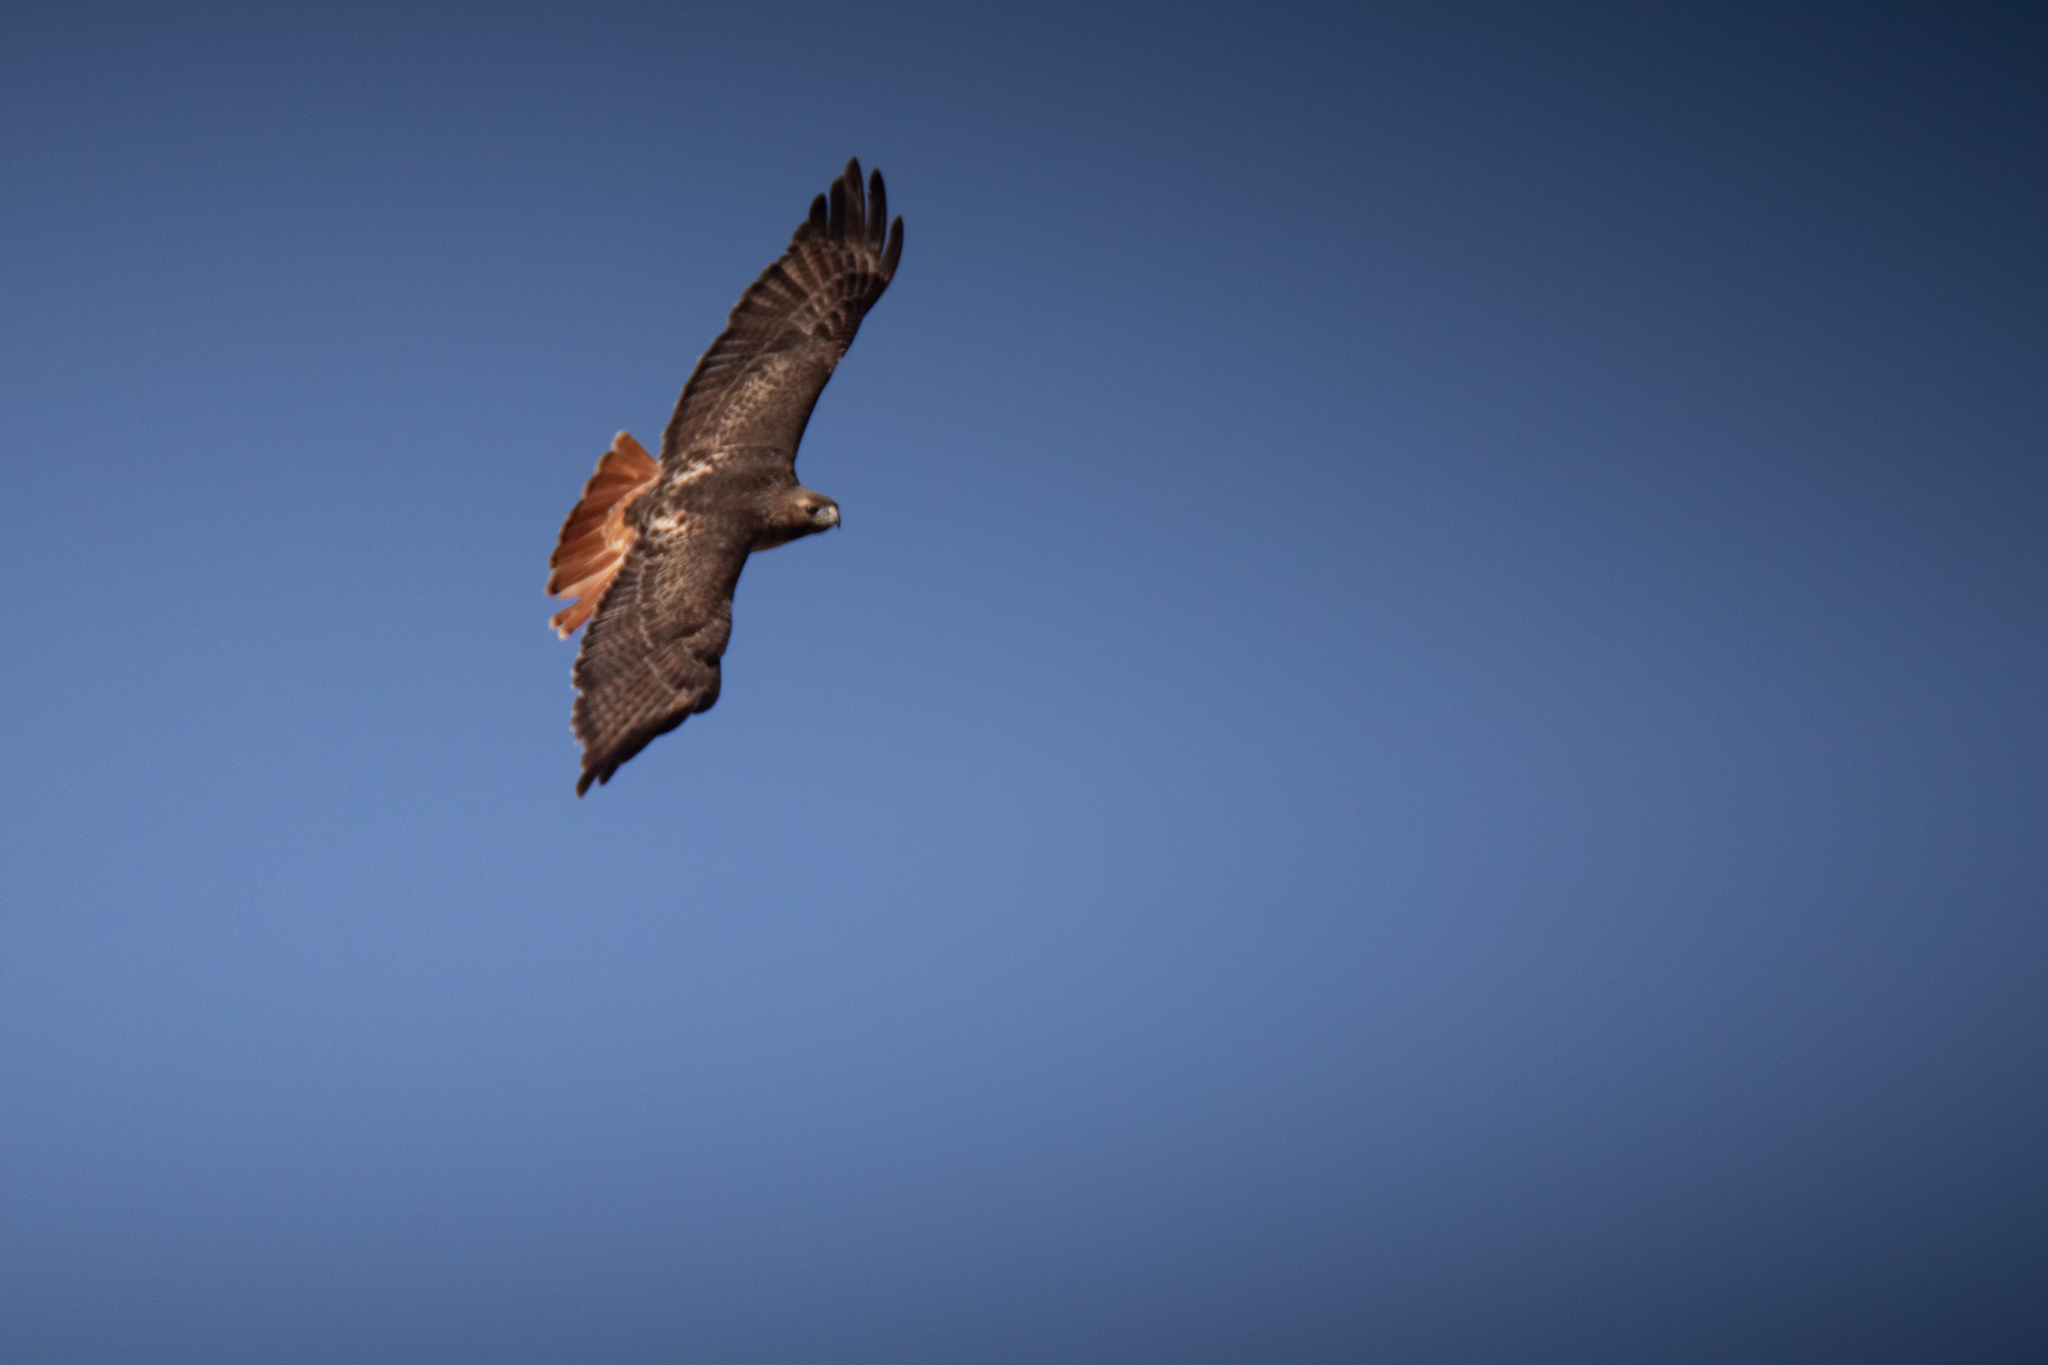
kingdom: Animalia
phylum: Chordata
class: Aves
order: Accipitriformes
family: Accipitridae
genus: Buteo
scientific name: Buteo jamaicensis
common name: Red-tailed hawk
